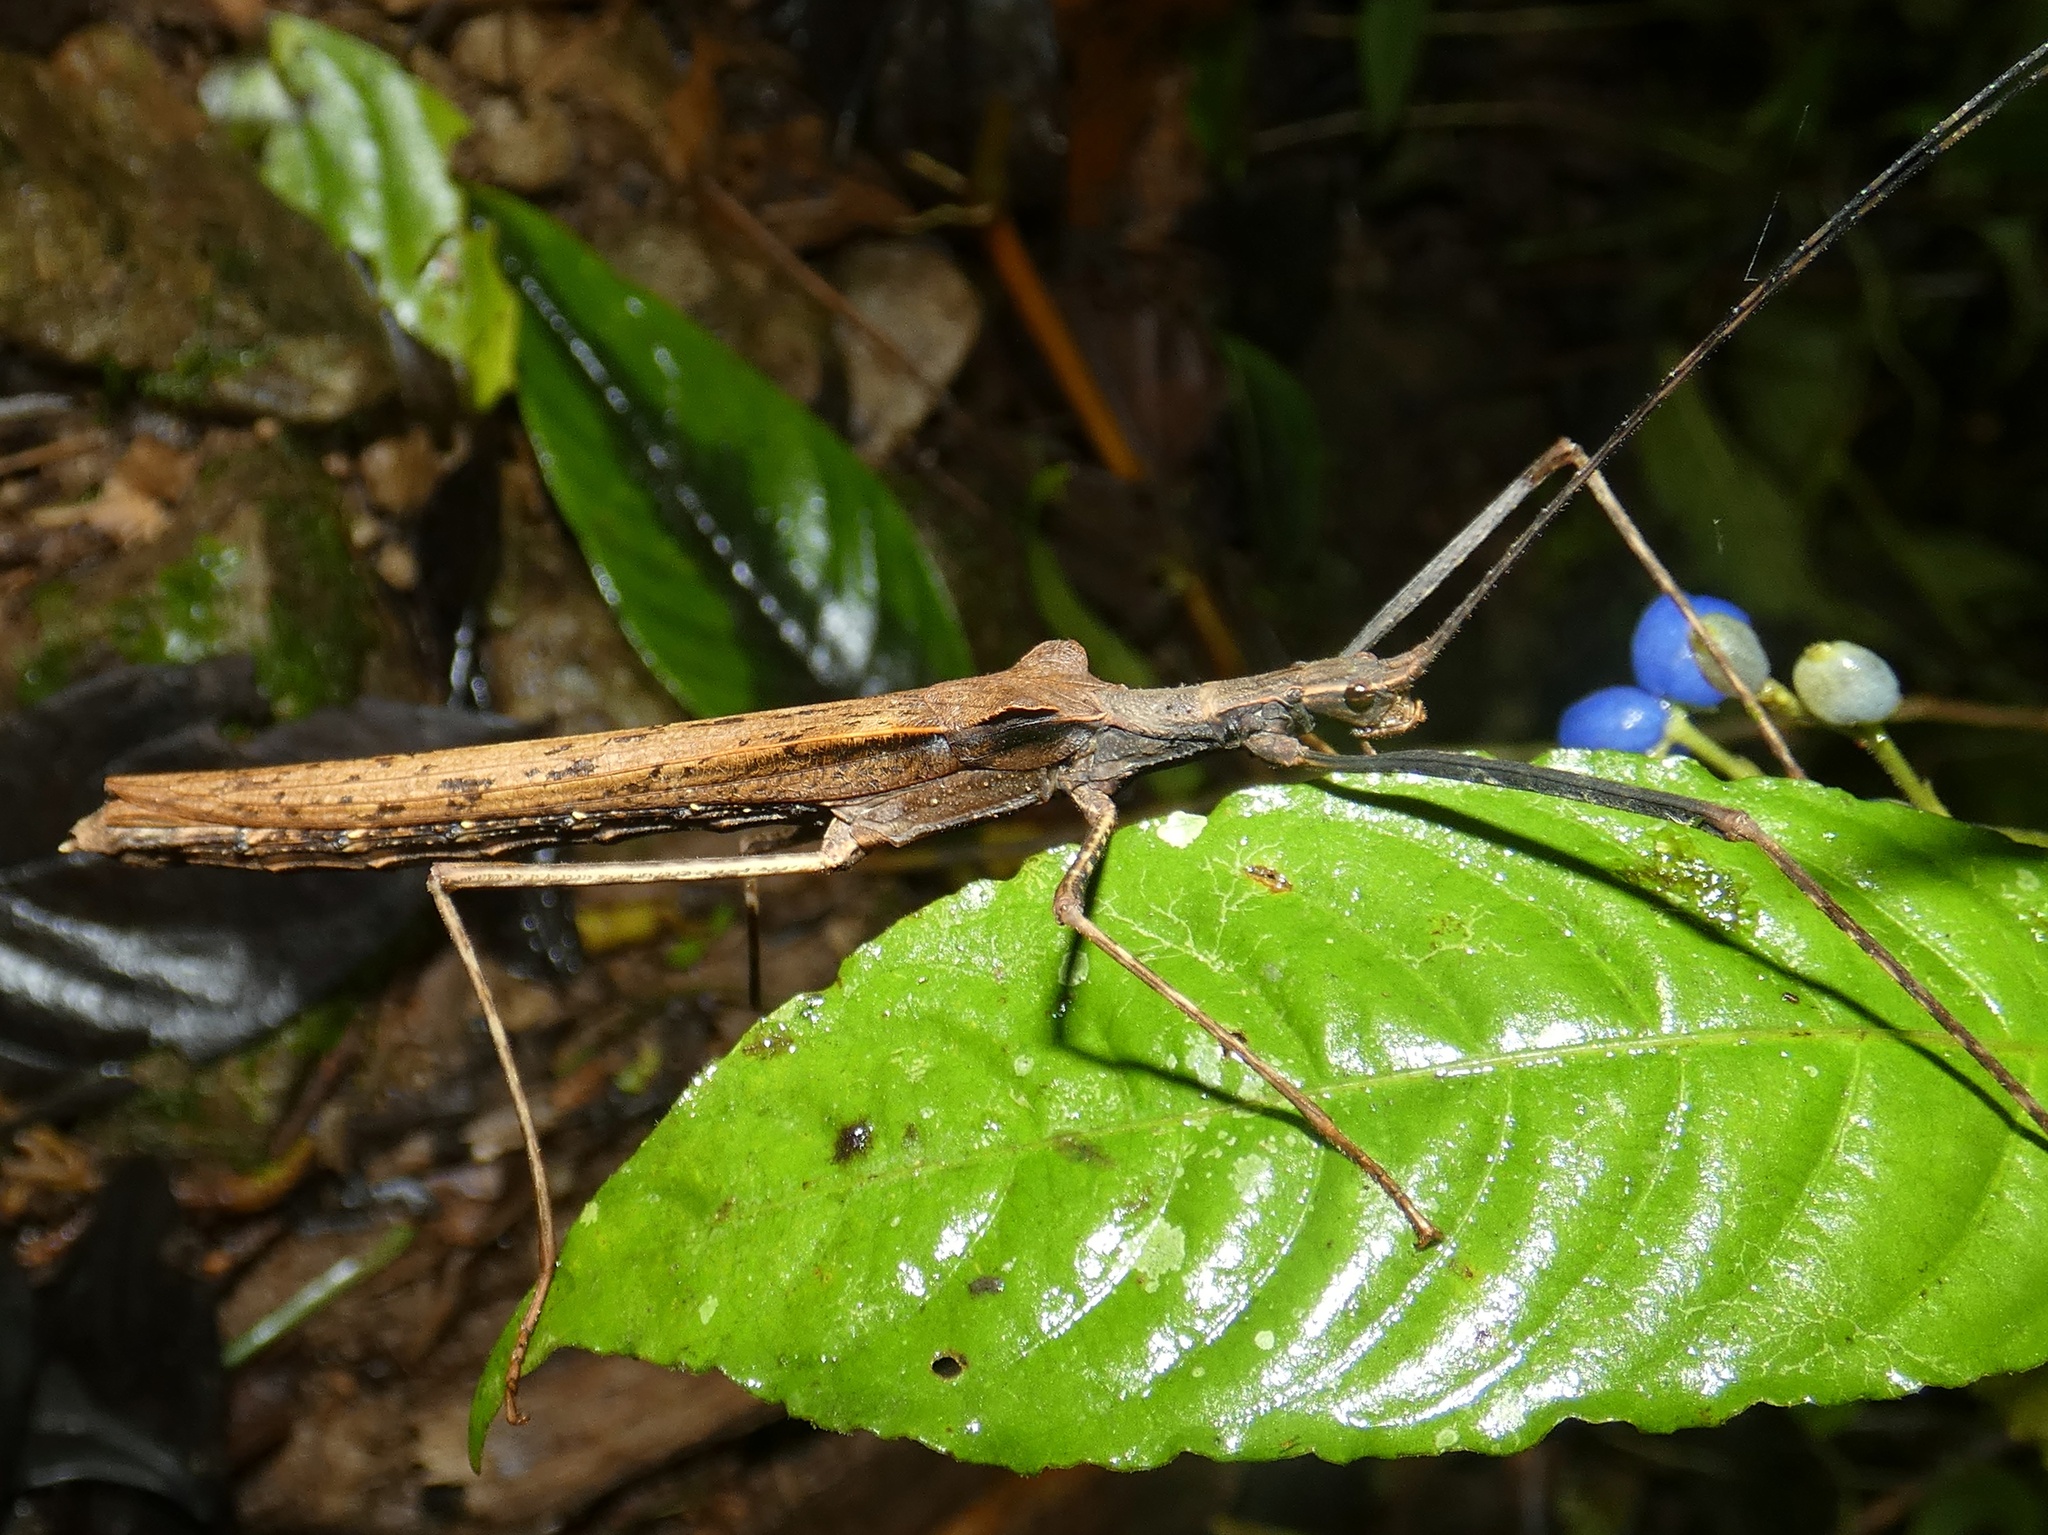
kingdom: Animalia
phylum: Arthropoda
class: Insecta
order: Phasmida
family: Pseudophasmatidae
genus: Pseudophasma
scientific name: Pseudophasma unicolor
